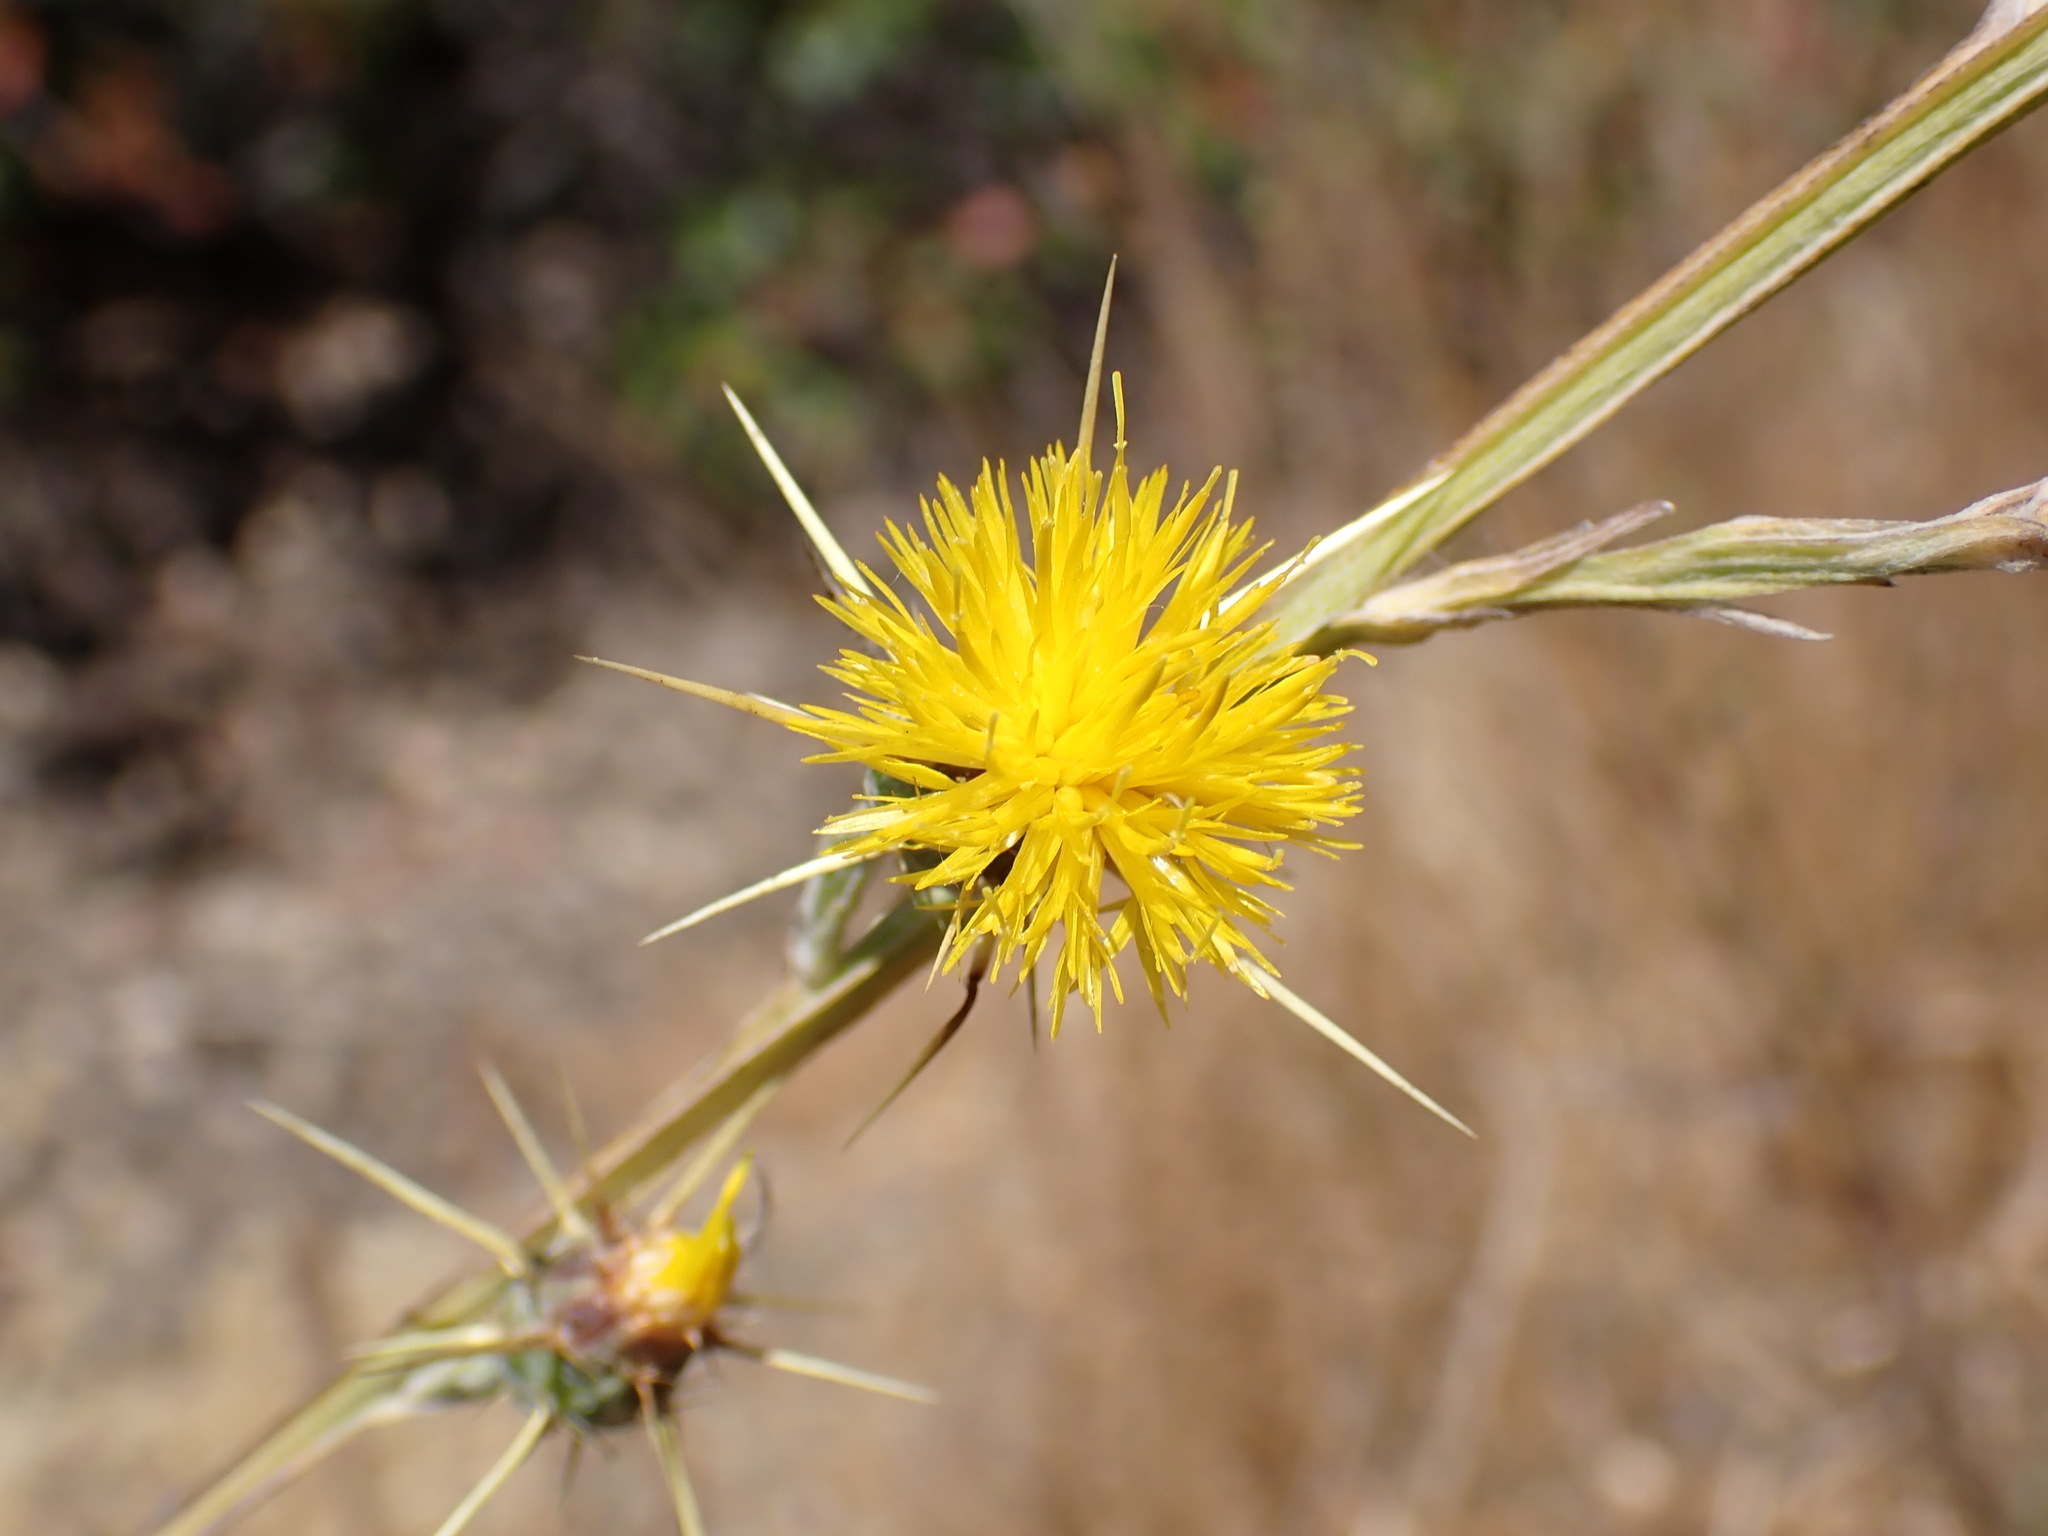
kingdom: Plantae
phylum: Tracheophyta
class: Magnoliopsida
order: Asterales
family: Asteraceae
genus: Centaurea
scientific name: Centaurea solstitialis
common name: Yellow star-thistle
